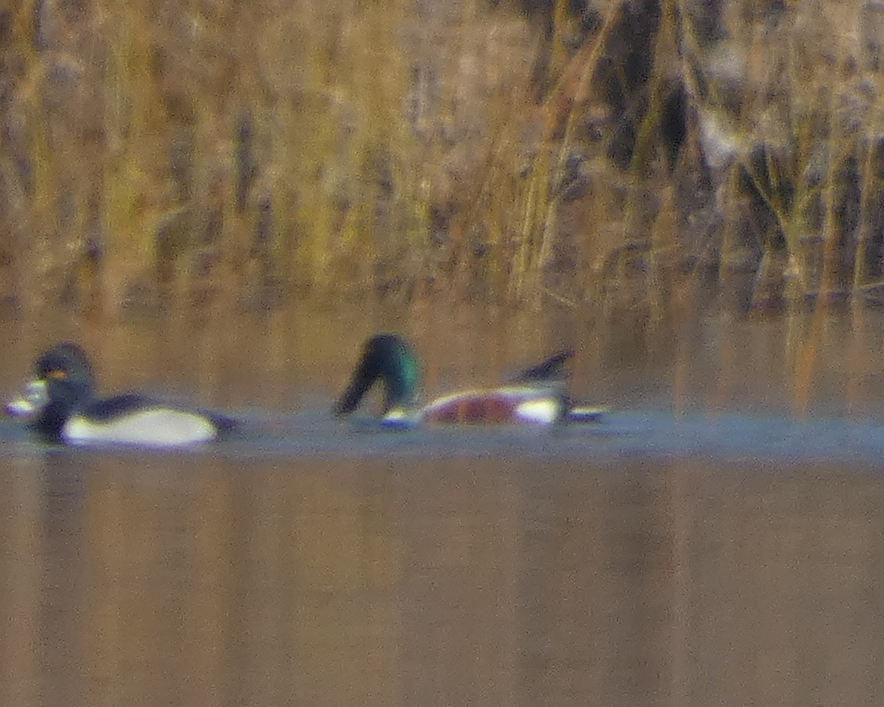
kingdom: Animalia
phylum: Chordata
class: Aves
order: Anseriformes
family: Anatidae
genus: Spatula
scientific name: Spatula clypeata
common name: Northern shoveler
